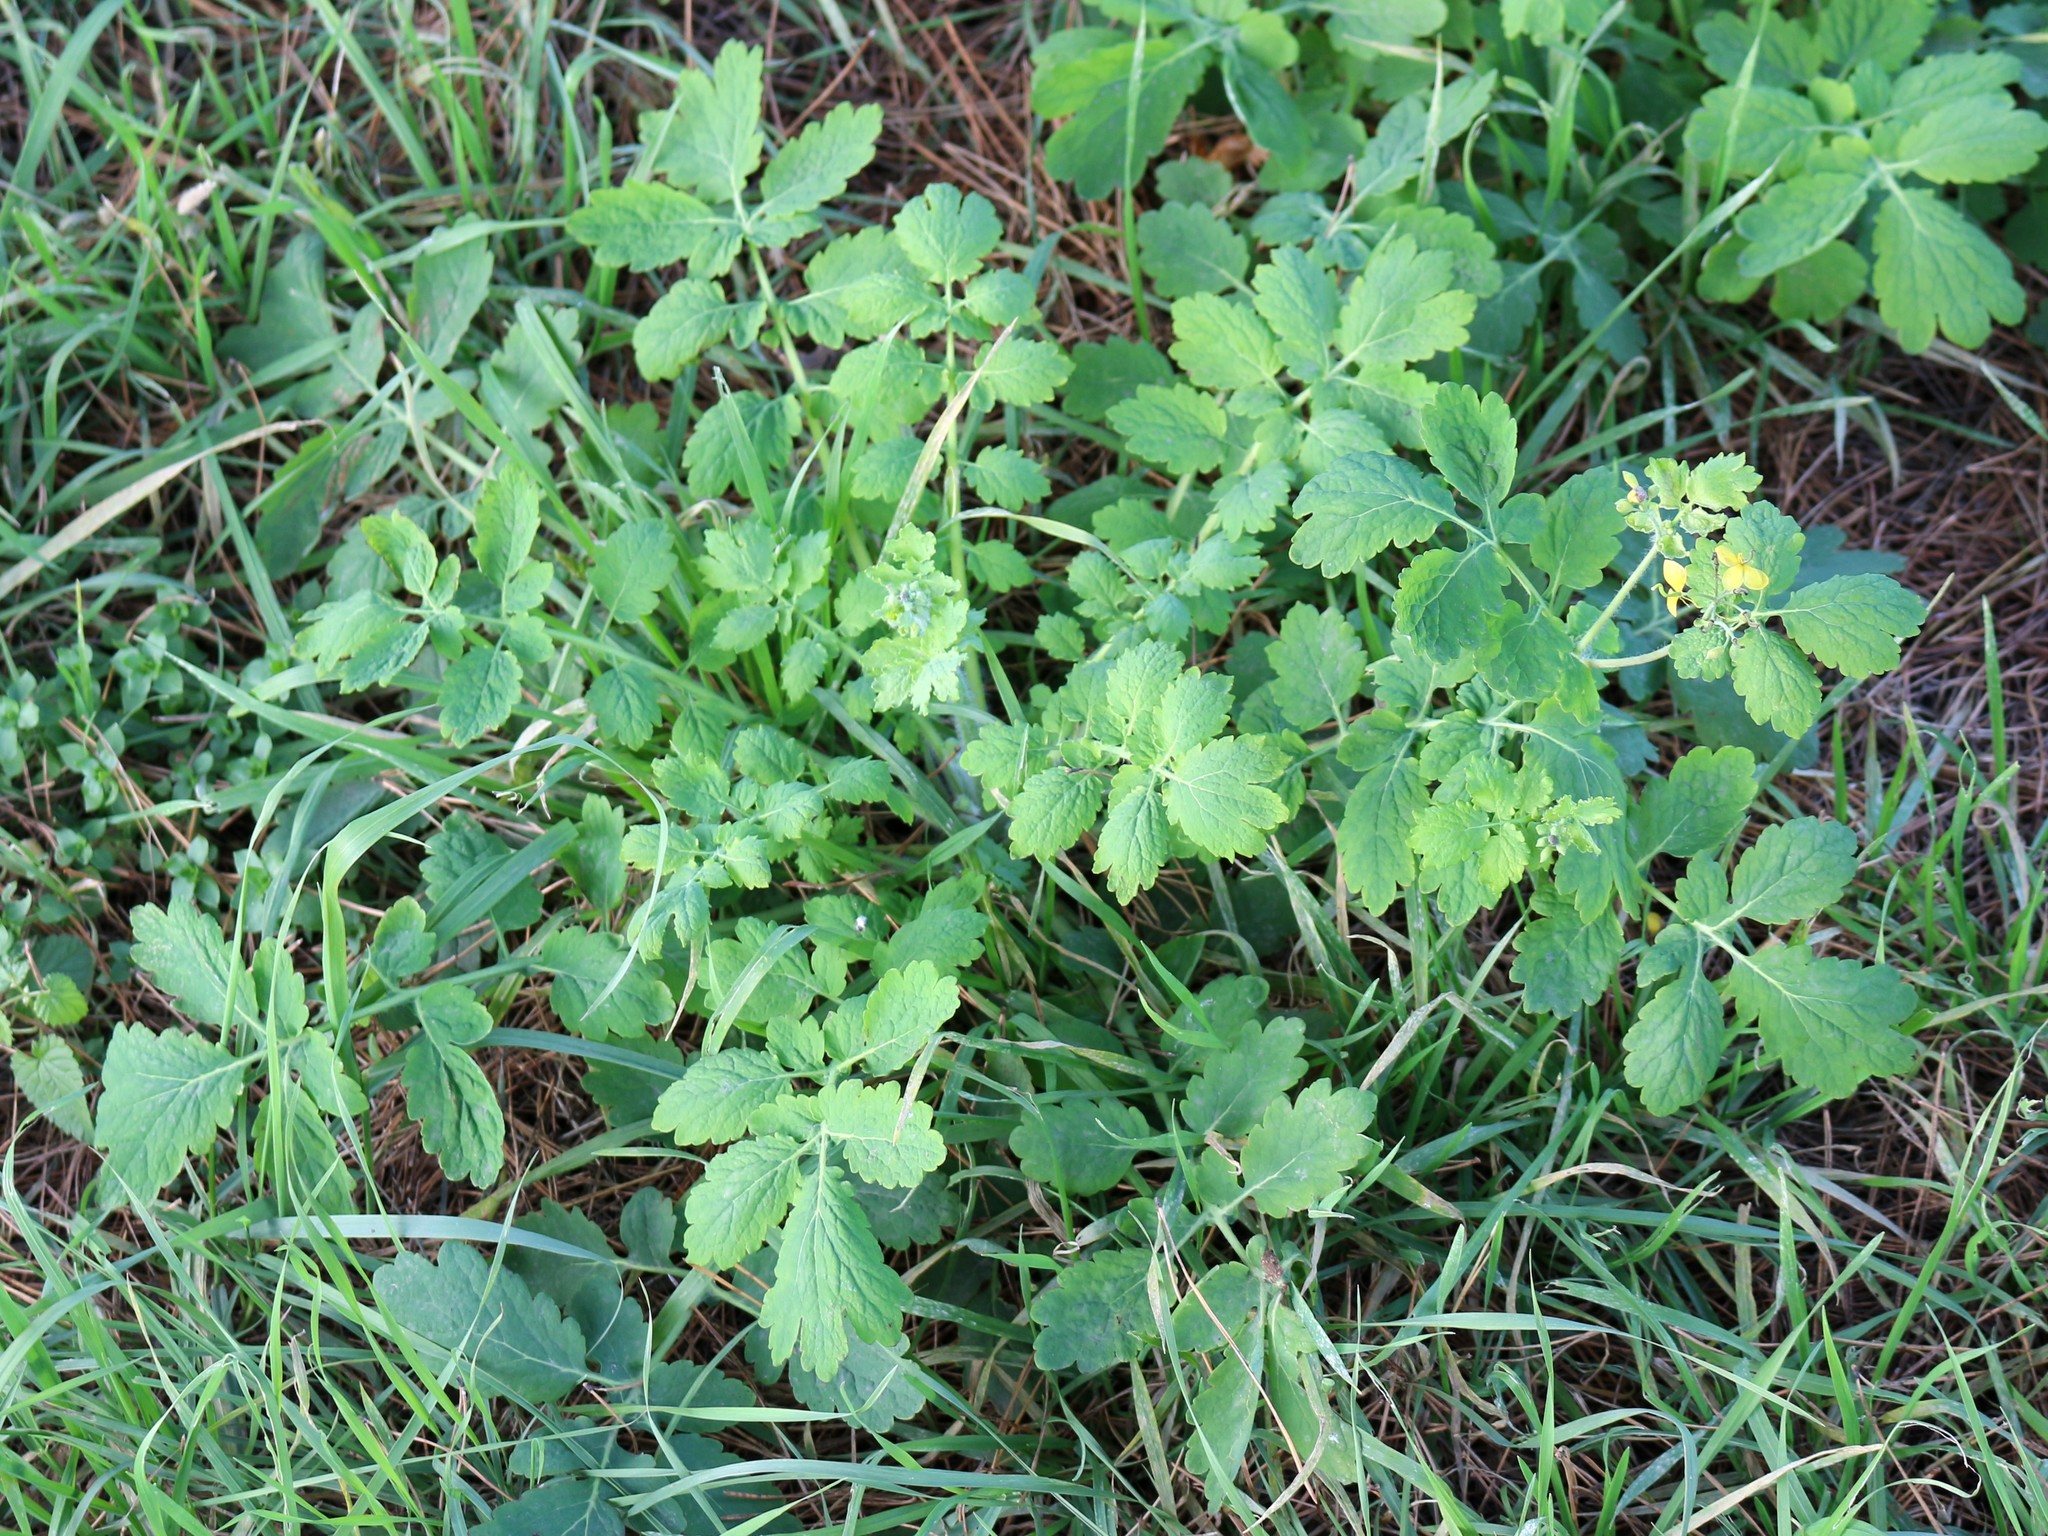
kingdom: Plantae
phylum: Tracheophyta
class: Magnoliopsida
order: Ranunculales
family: Papaveraceae
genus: Chelidonium
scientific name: Chelidonium majus
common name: Greater celandine
